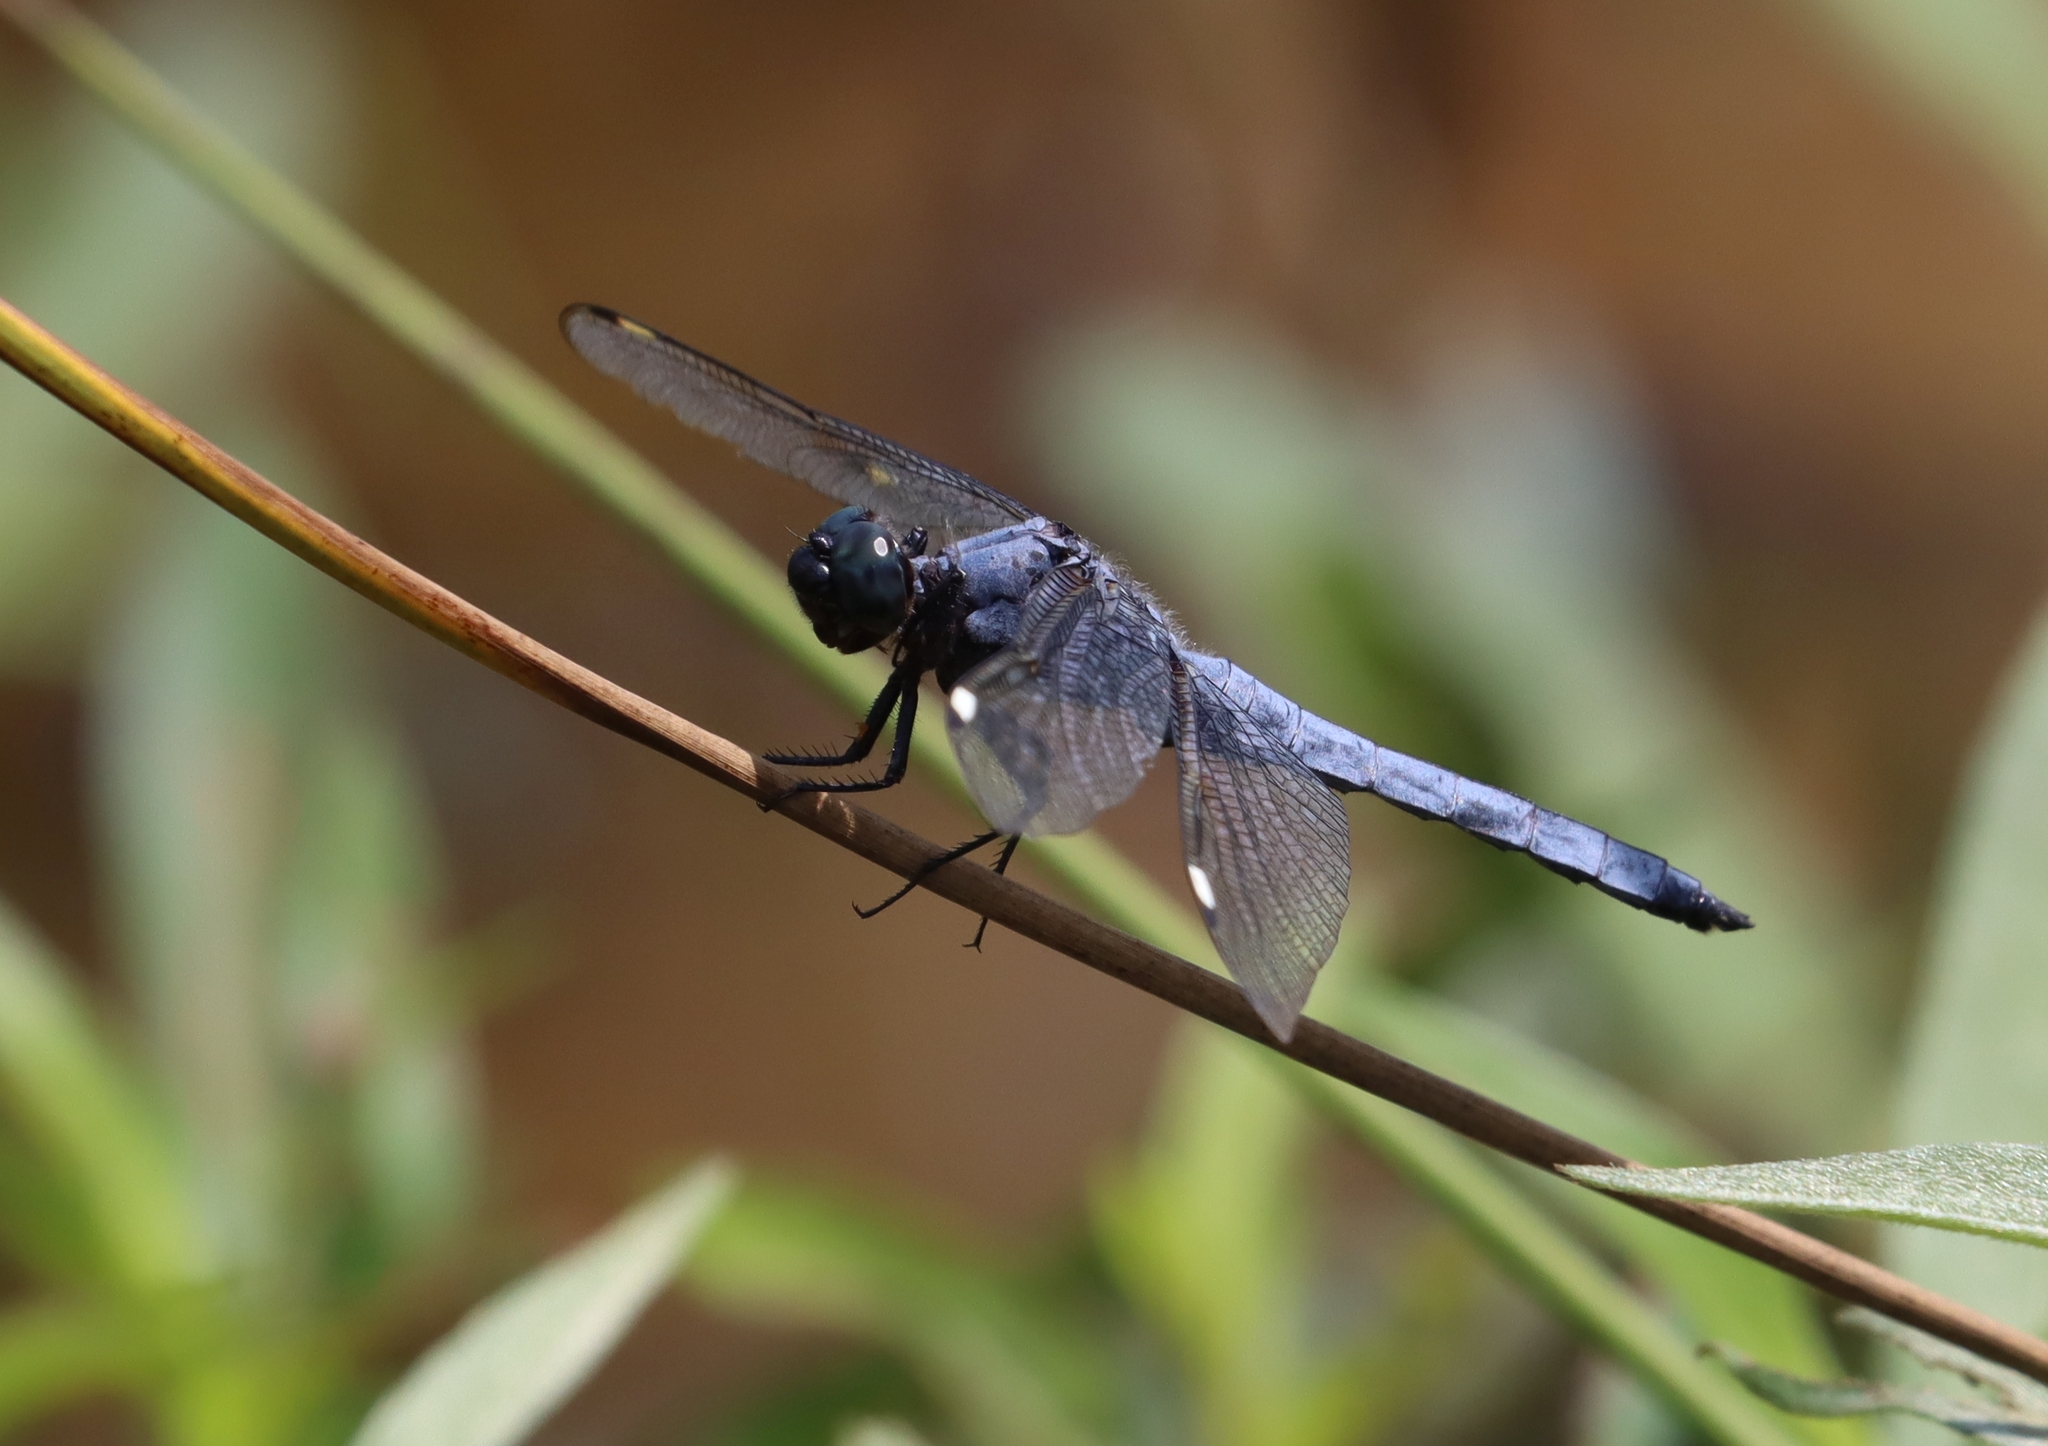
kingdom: Animalia
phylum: Arthropoda
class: Insecta
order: Odonata
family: Libellulidae
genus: Libellula
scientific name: Libellula cyanea
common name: Spangled skimmer
